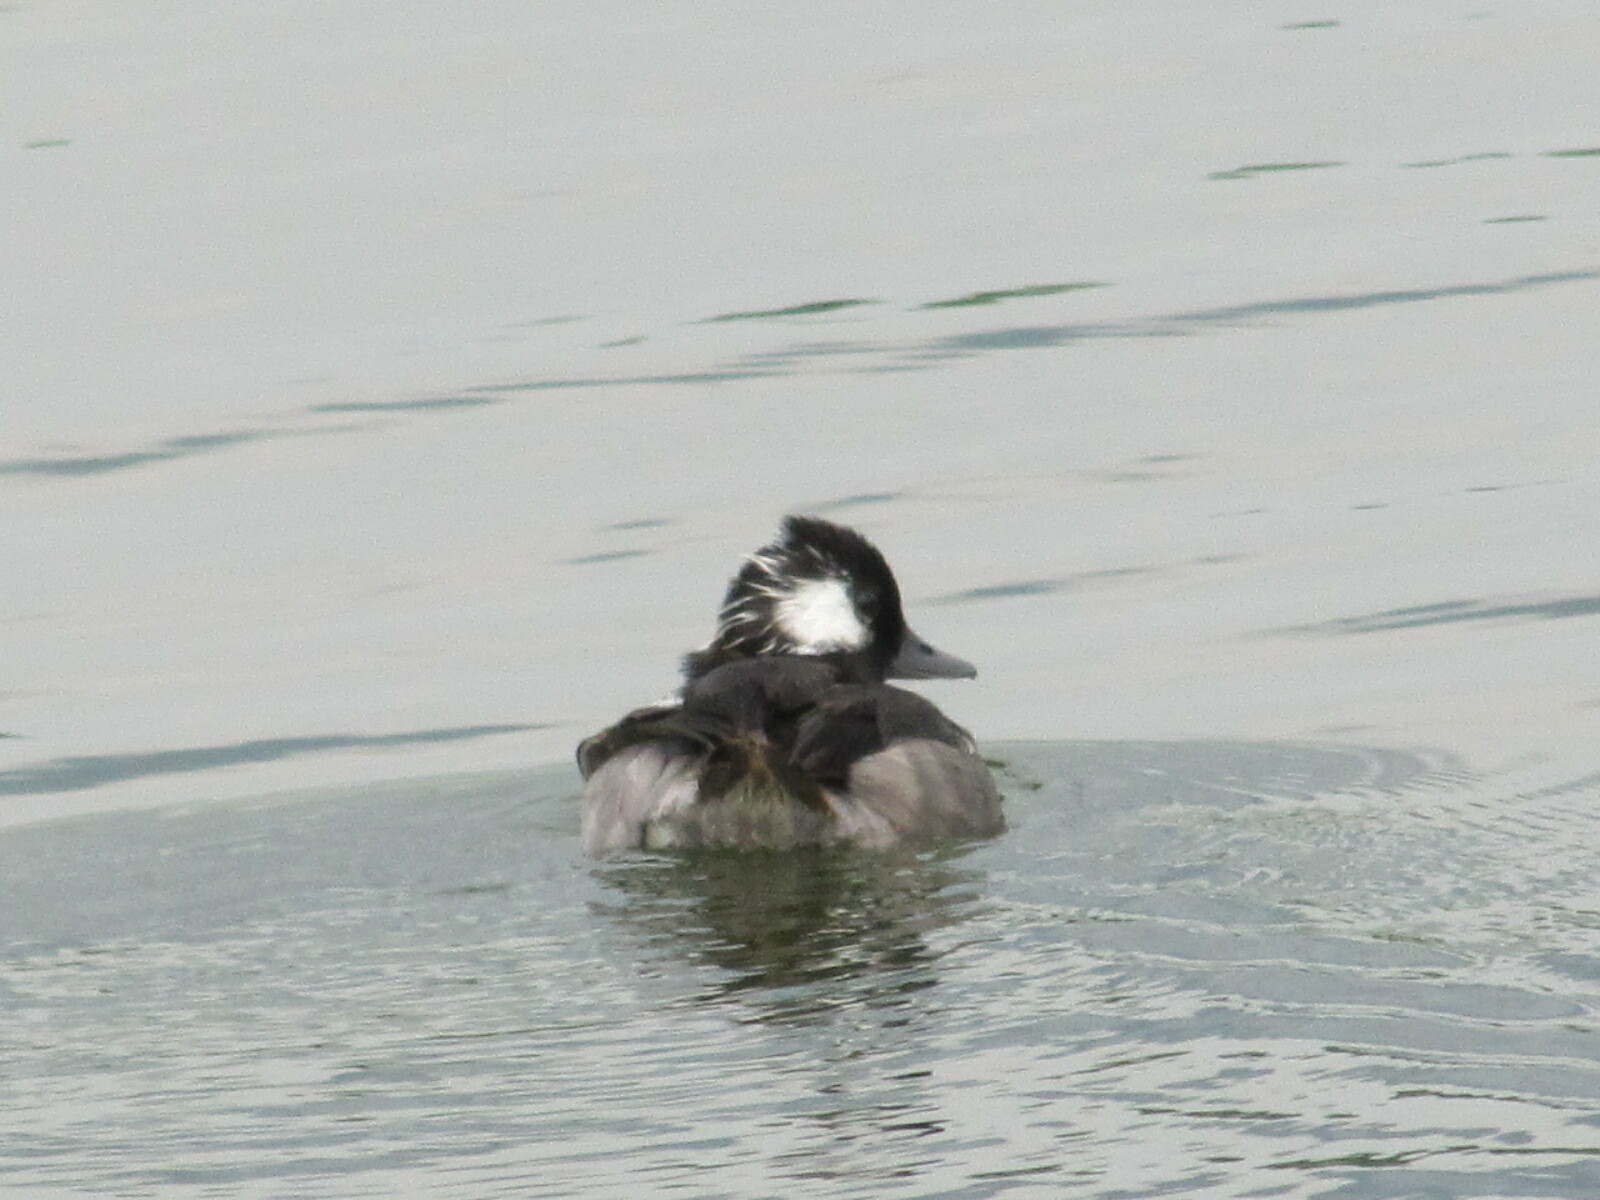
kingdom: Animalia
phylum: Chordata
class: Aves
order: Anseriformes
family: Anatidae
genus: Bucephala
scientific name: Bucephala albeola
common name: Bufflehead
